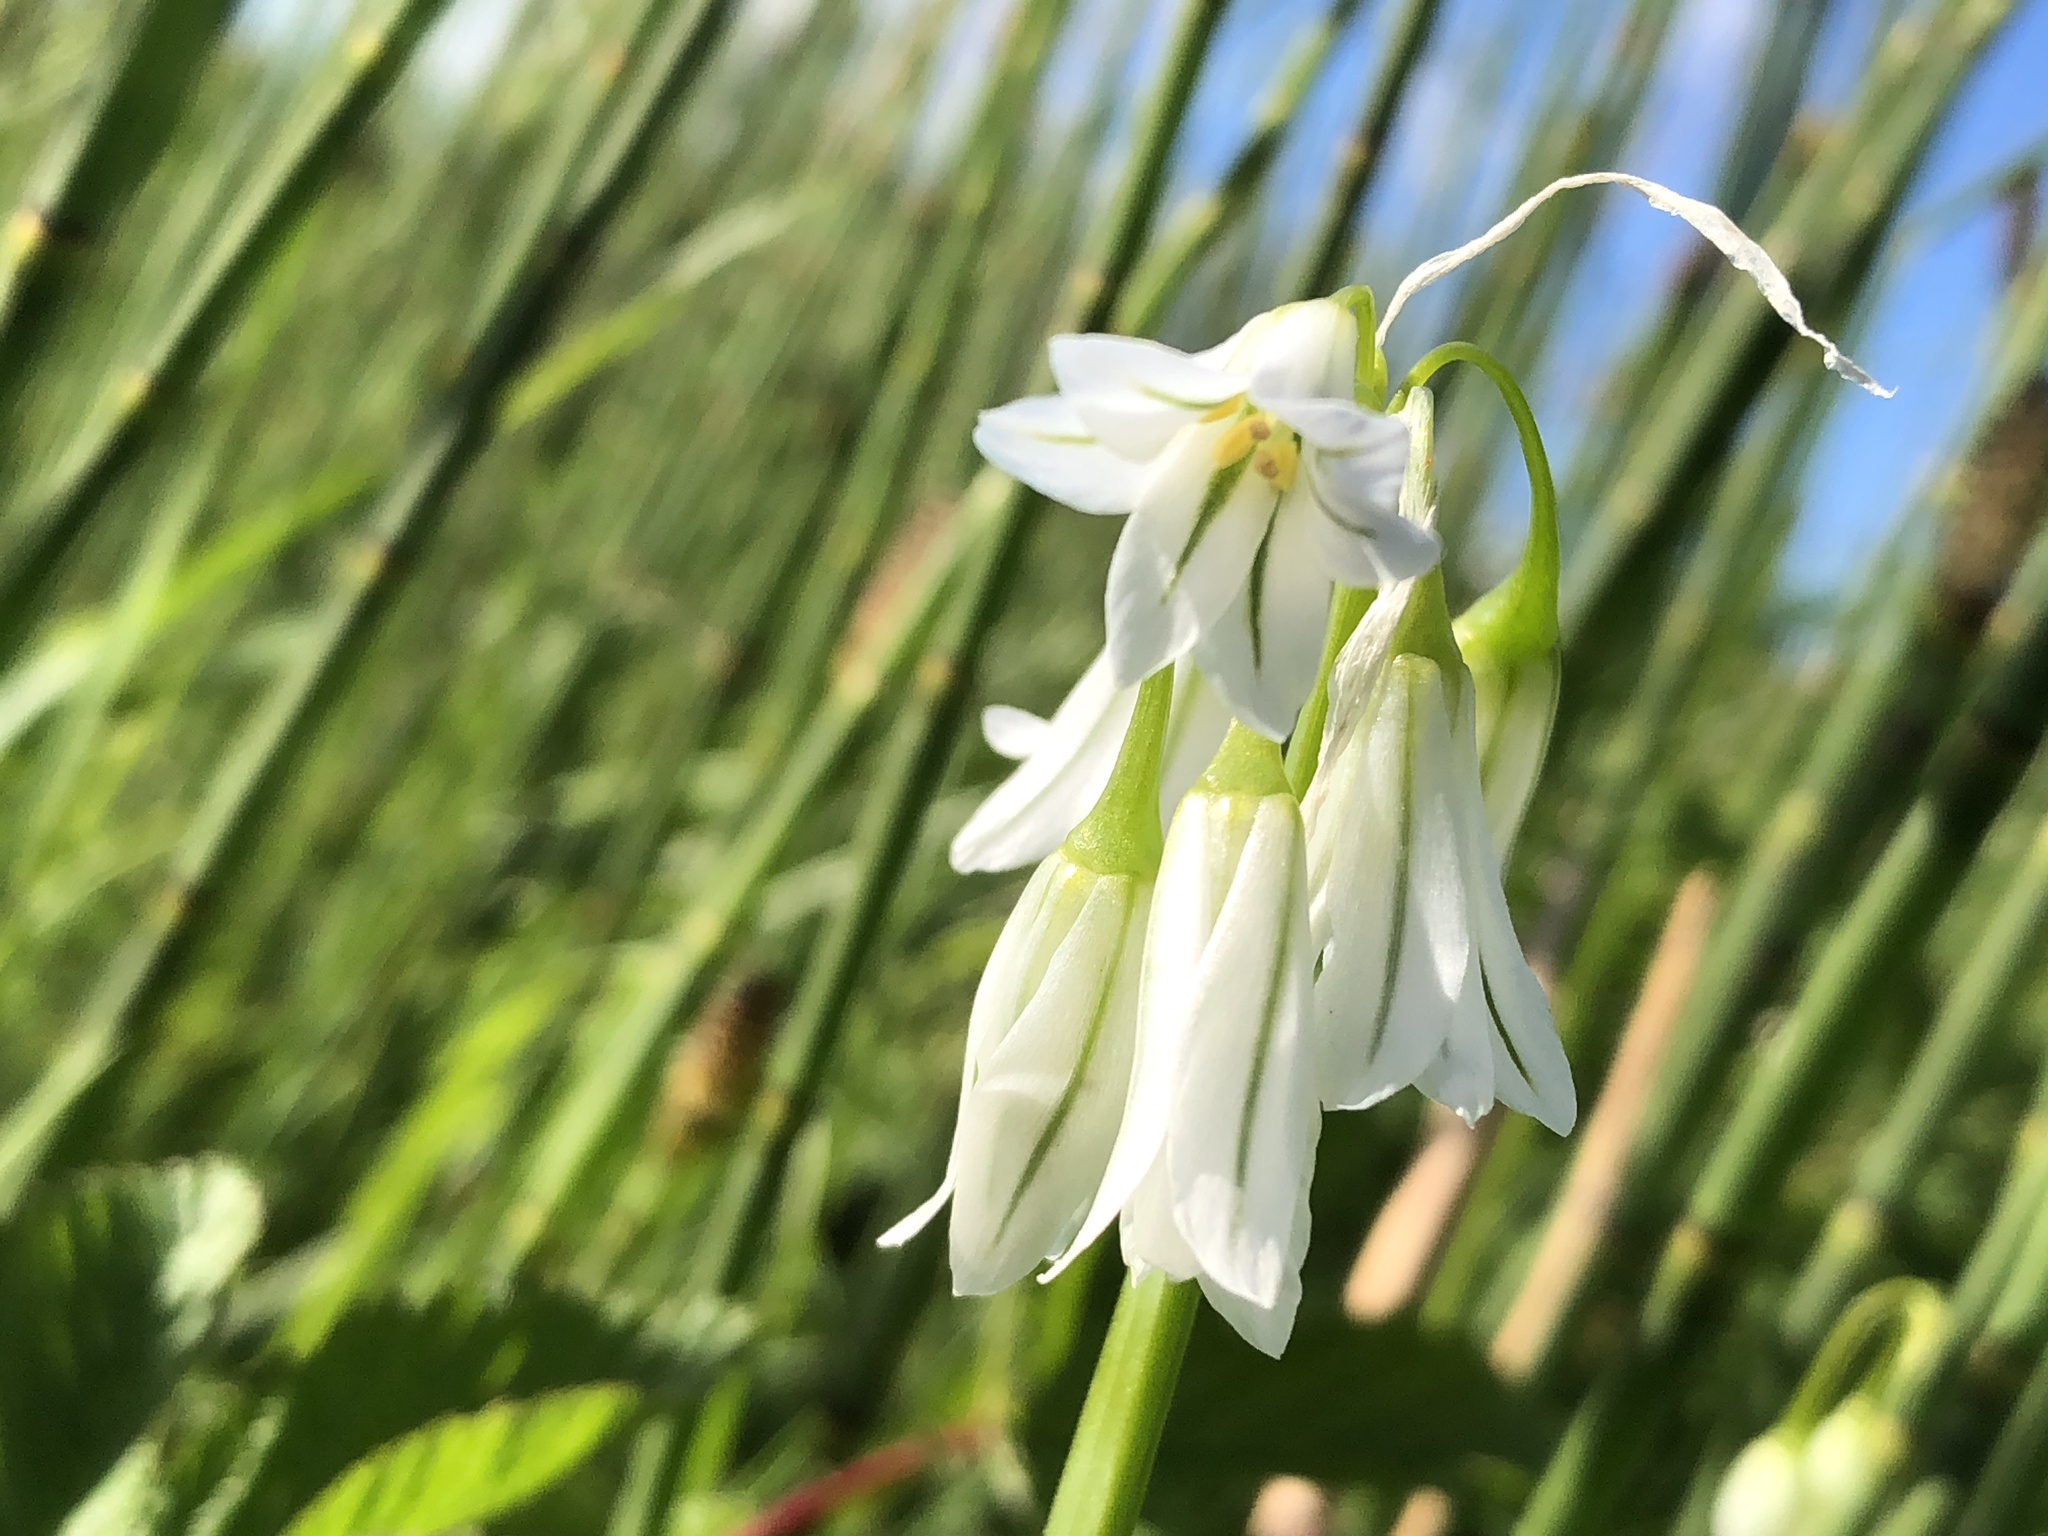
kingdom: Plantae
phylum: Tracheophyta
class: Liliopsida
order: Asparagales
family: Amaryllidaceae
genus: Allium
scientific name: Allium triquetrum
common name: Three-cornered garlic
